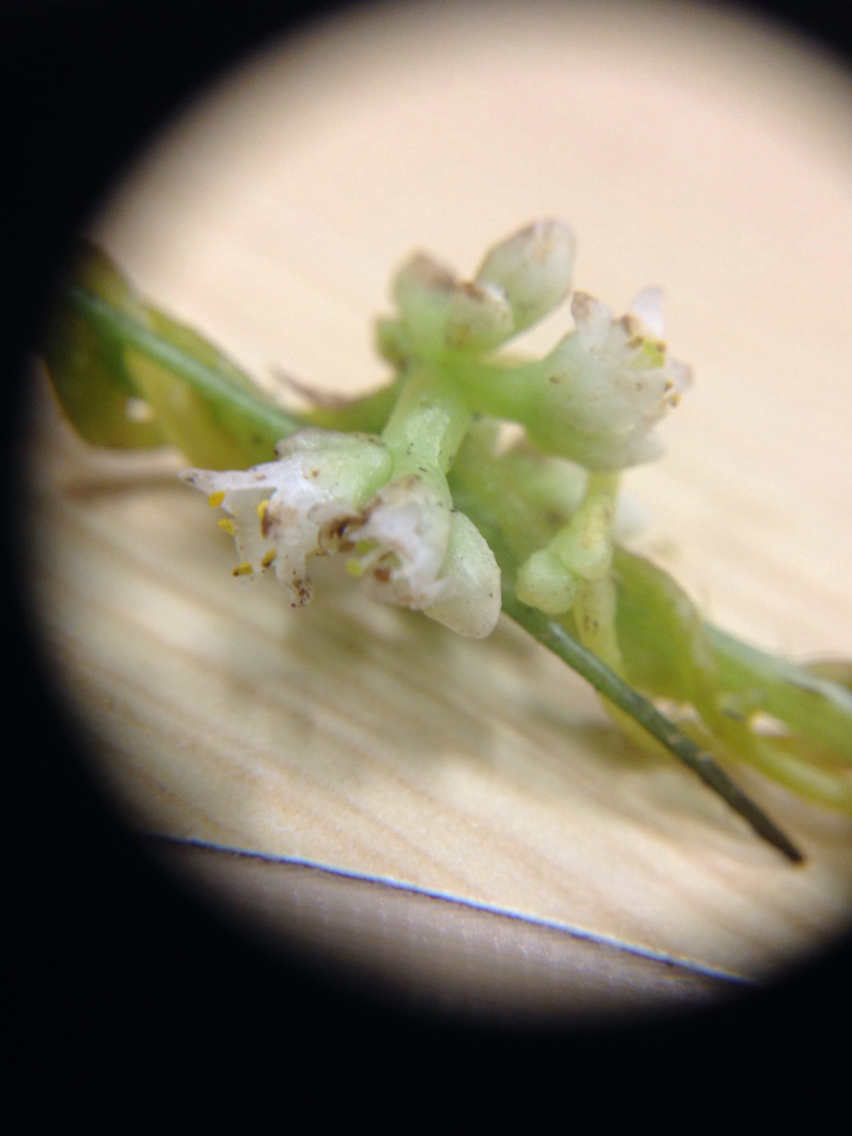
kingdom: Plantae
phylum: Tracheophyta
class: Magnoliopsida
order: Solanales
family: Convolvulaceae
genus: Cuscuta
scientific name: Cuscuta gronovii
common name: Common dodder
